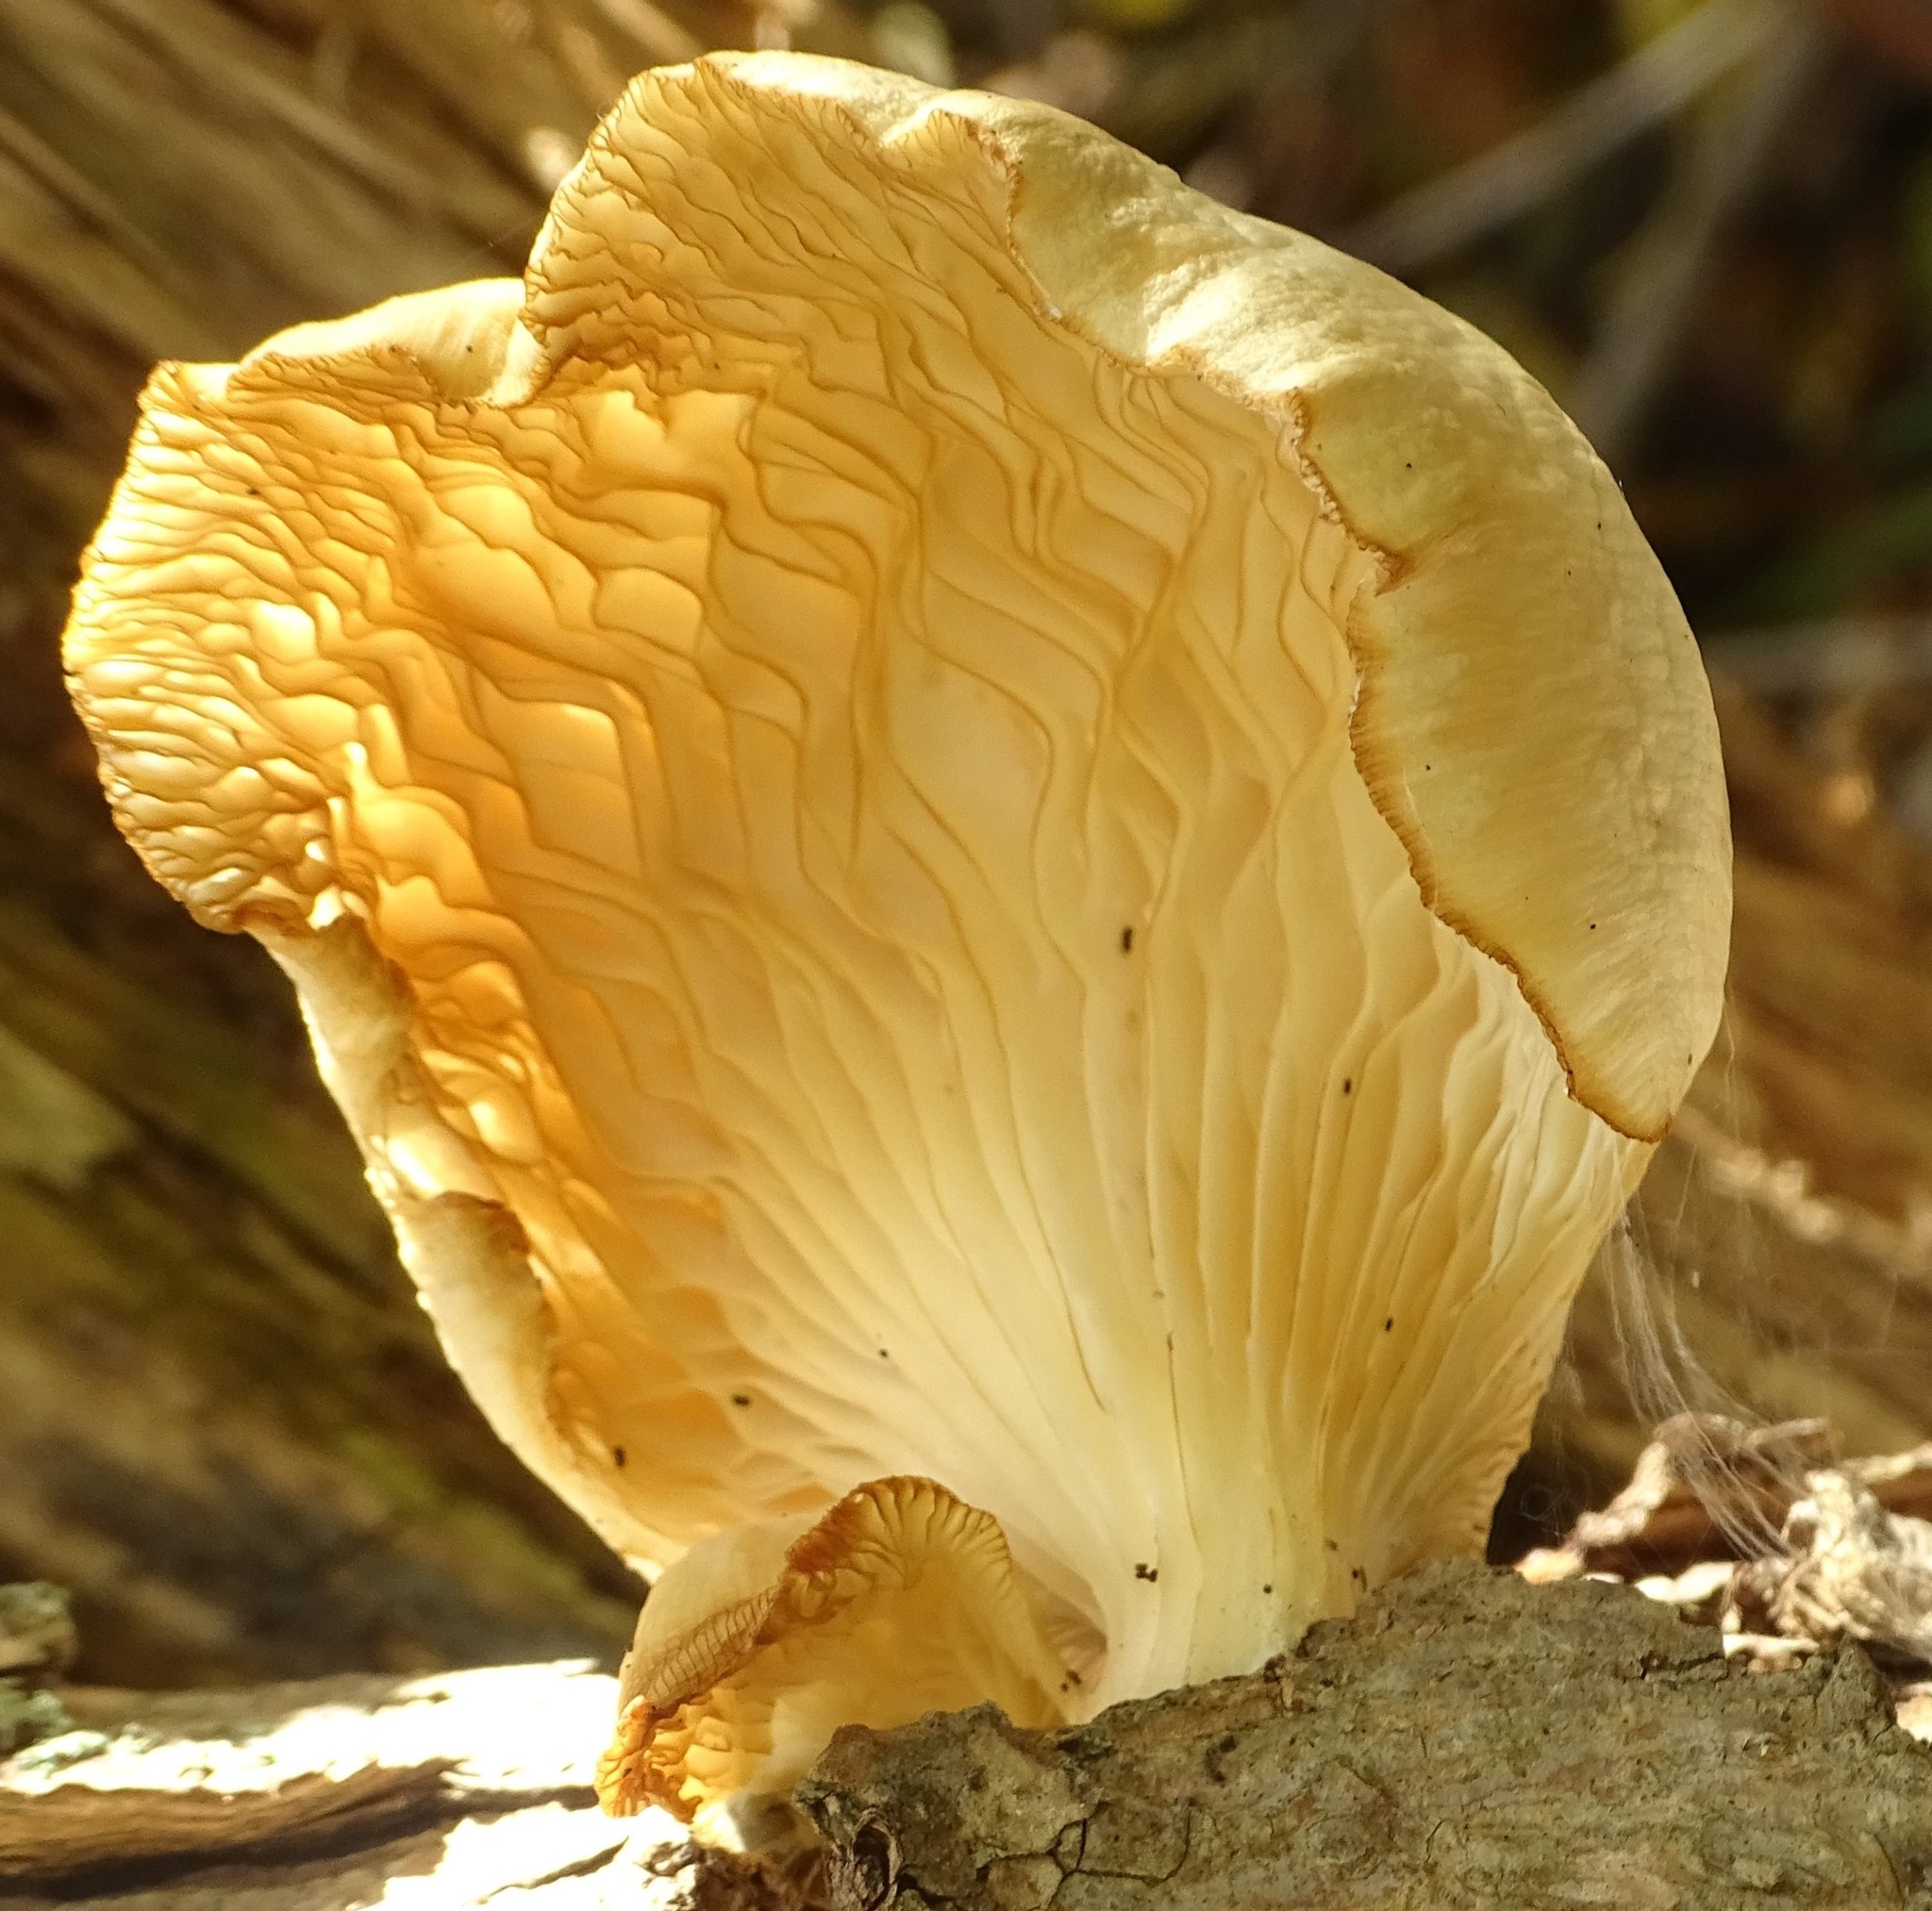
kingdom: Fungi
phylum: Basidiomycota
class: Agaricomycetes
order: Agaricales
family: Pleurotaceae
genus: Pleurotus
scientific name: Pleurotus pulmonarius
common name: Pale oyster
